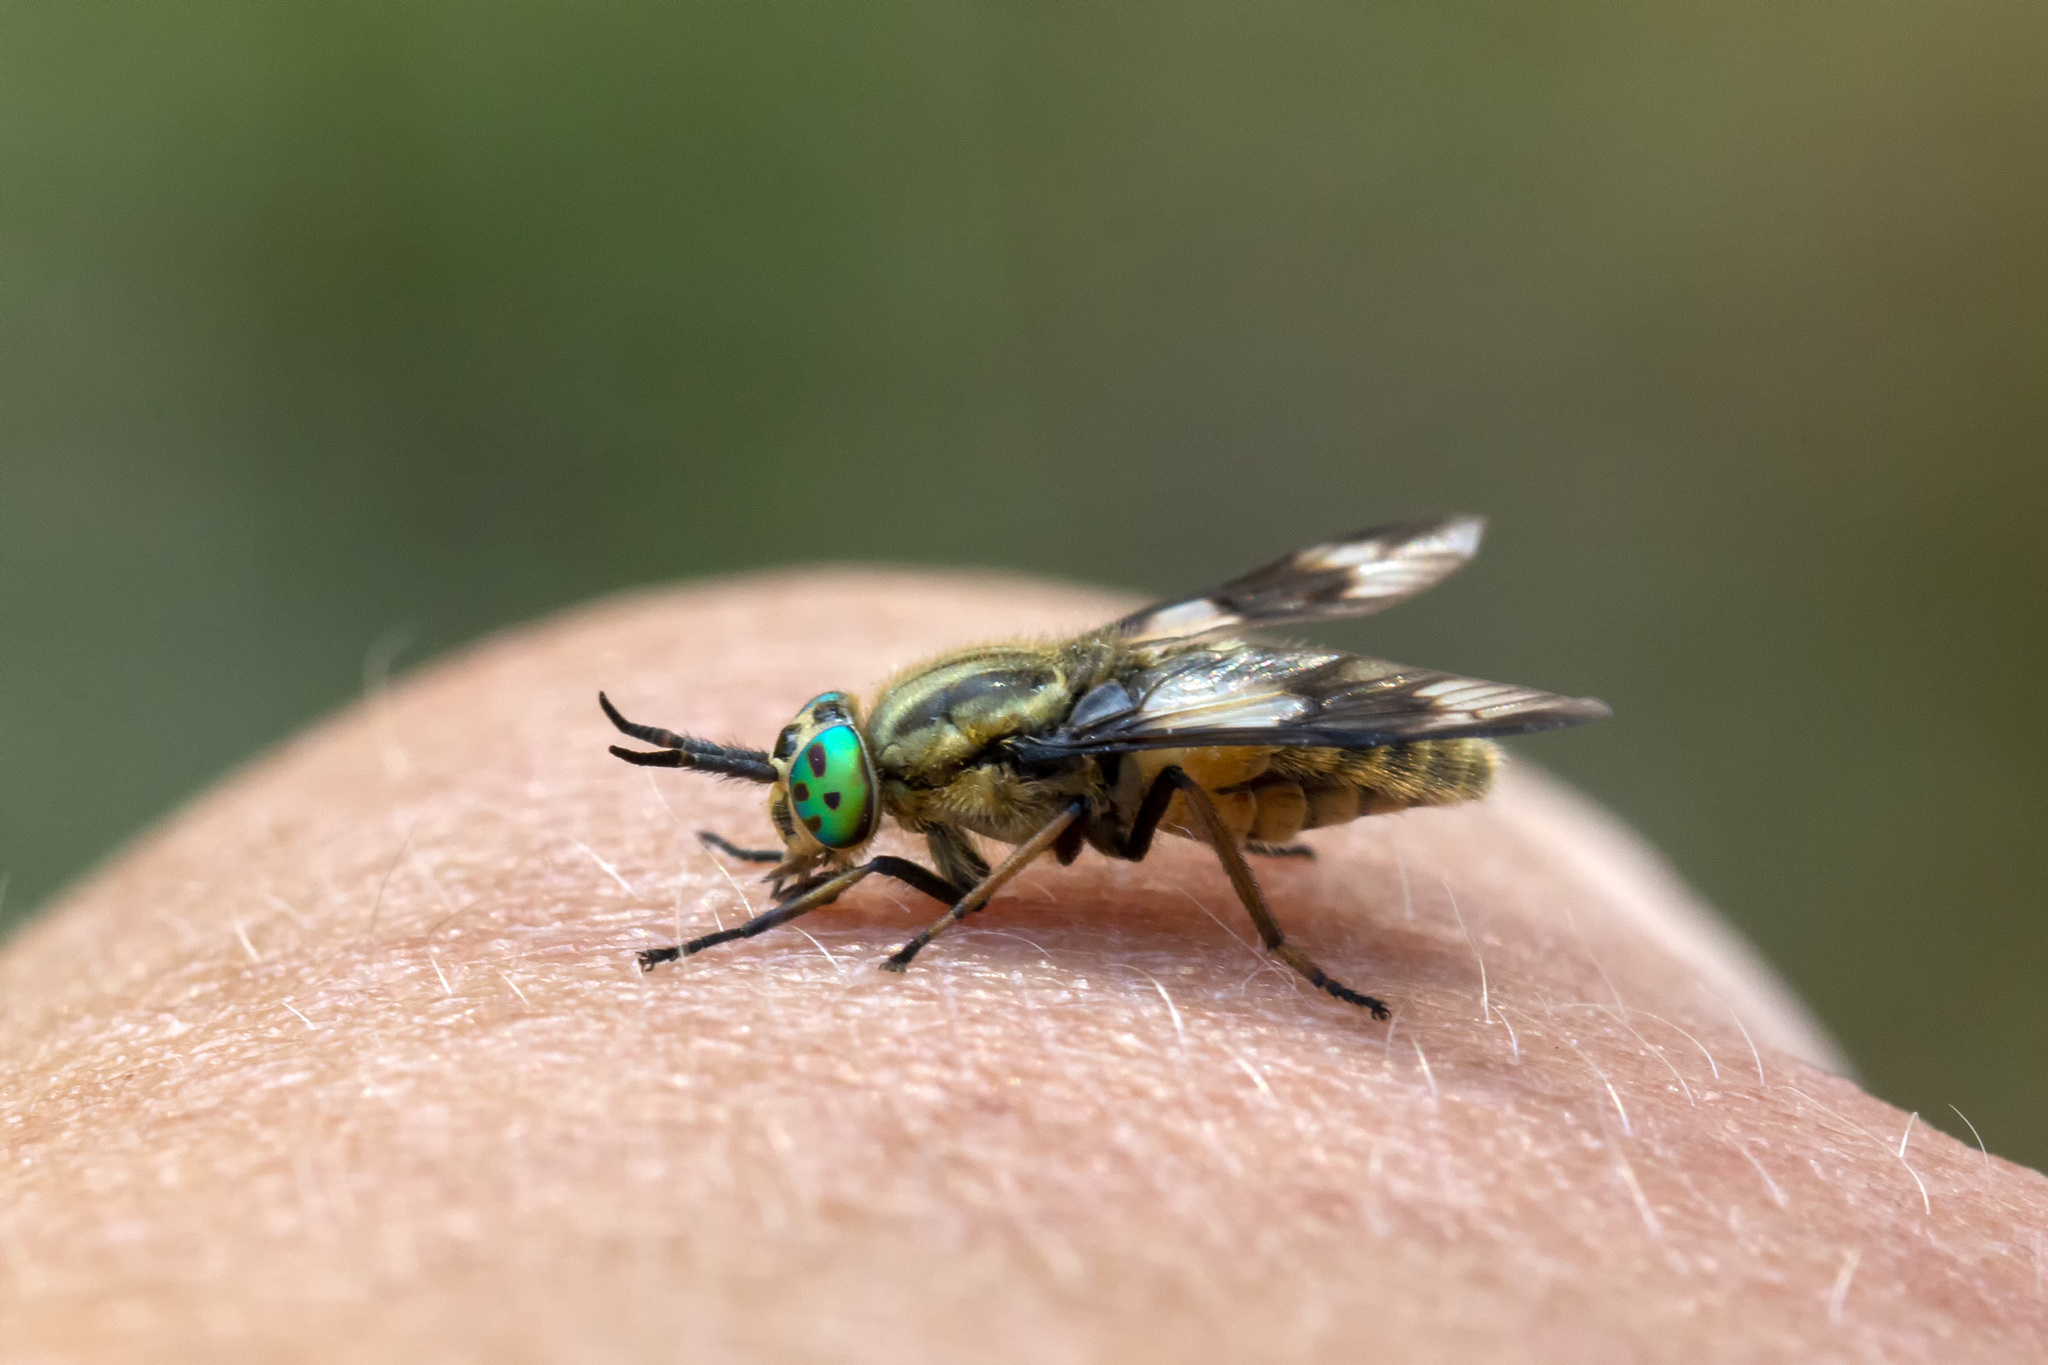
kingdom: Animalia
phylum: Arthropoda
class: Insecta
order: Diptera
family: Tabanidae
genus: Chrysops
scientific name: Chrysops relictus
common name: Twin-lobed deerfly
